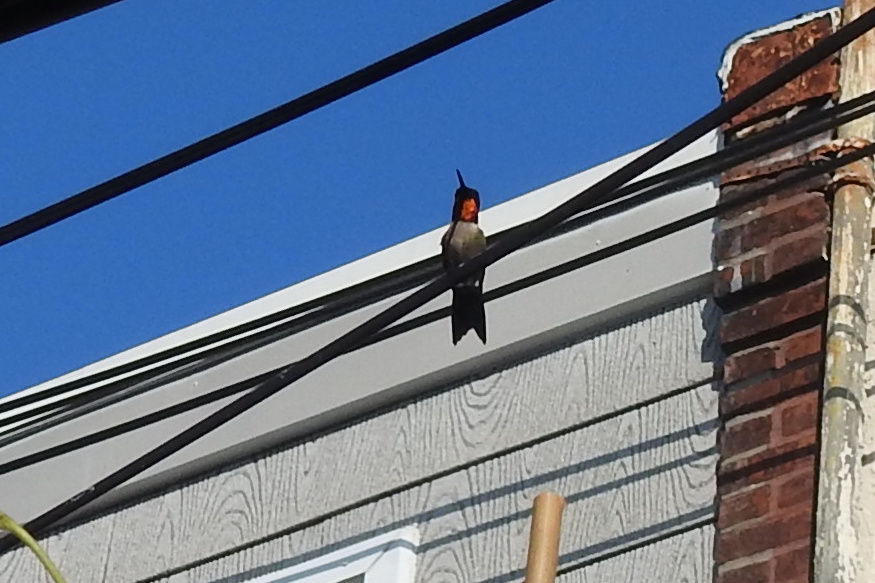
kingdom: Animalia
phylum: Chordata
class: Aves
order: Apodiformes
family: Trochilidae
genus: Archilochus
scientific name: Archilochus colubris
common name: Ruby-throated hummingbird
